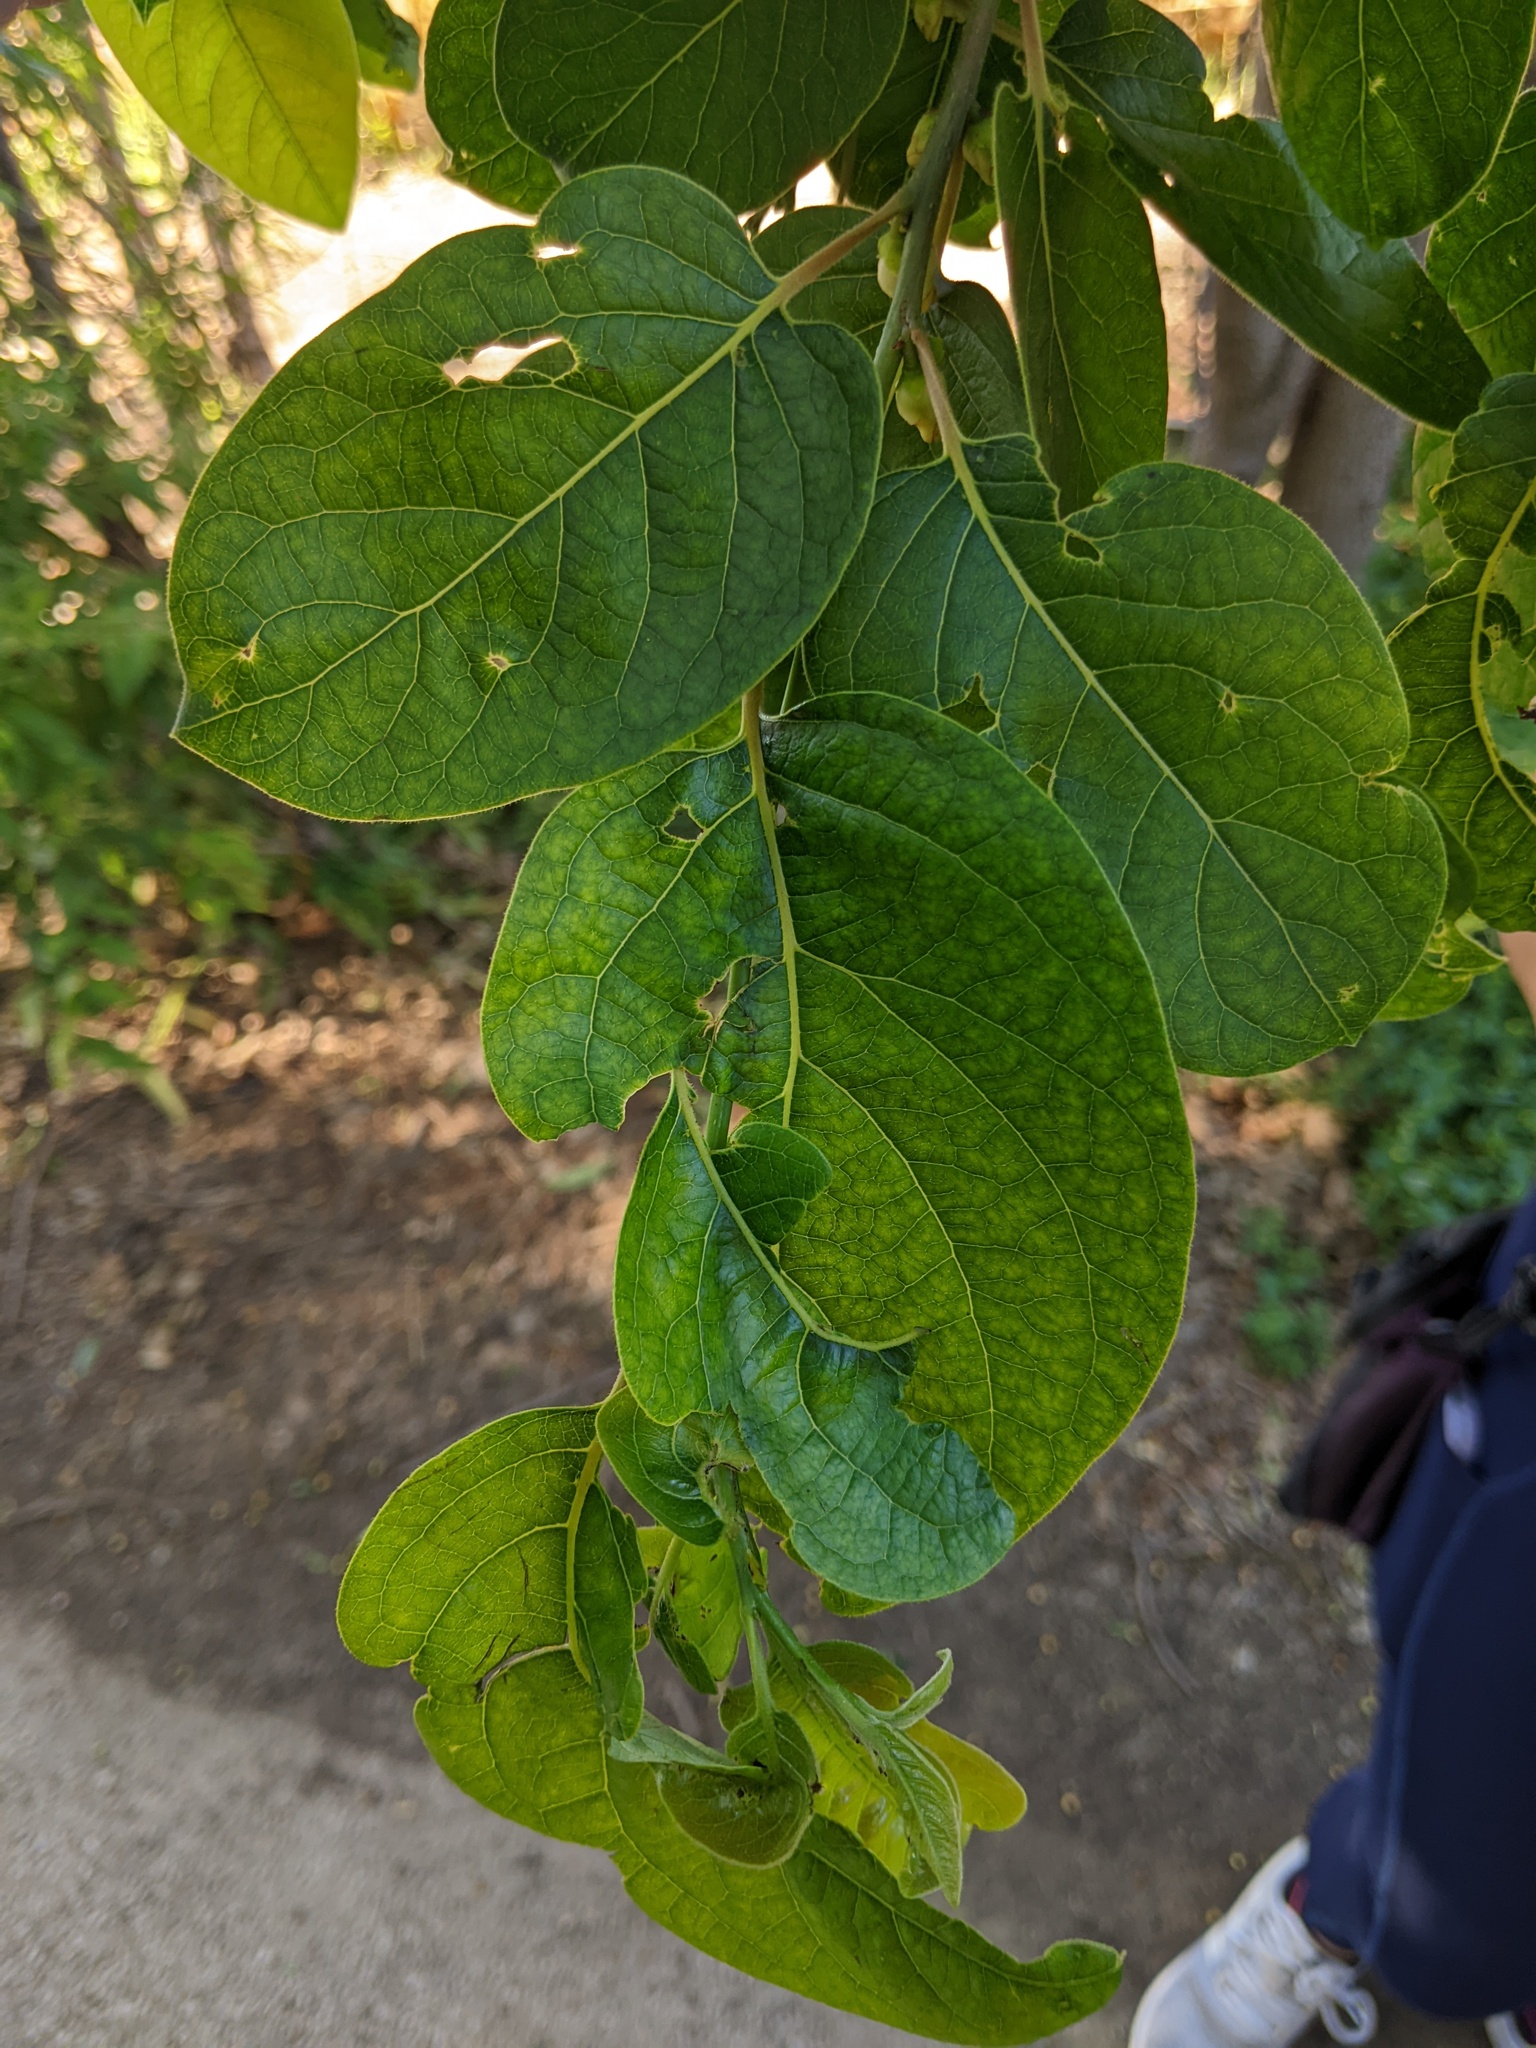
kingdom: Plantae
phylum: Tracheophyta
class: Magnoliopsida
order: Ericales
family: Ebenaceae
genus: Diospyros
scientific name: Diospyros virginiana
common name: Persimmon
